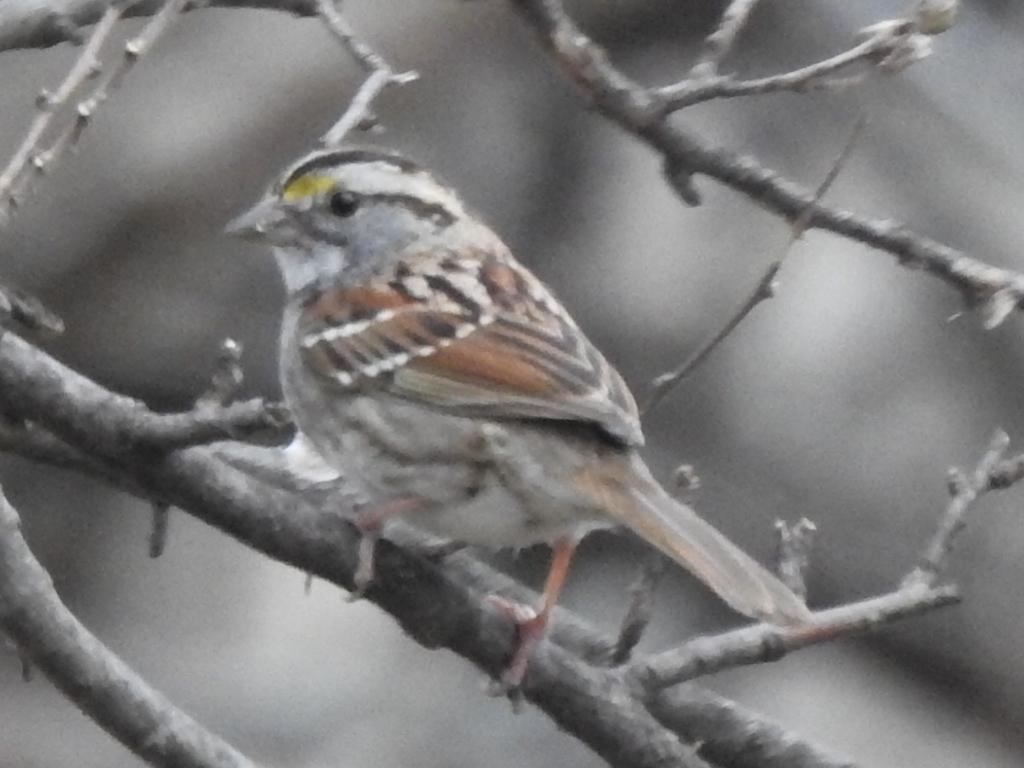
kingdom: Animalia
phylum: Chordata
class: Aves
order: Passeriformes
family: Passerellidae
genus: Zonotrichia
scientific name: Zonotrichia albicollis
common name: White-throated sparrow
